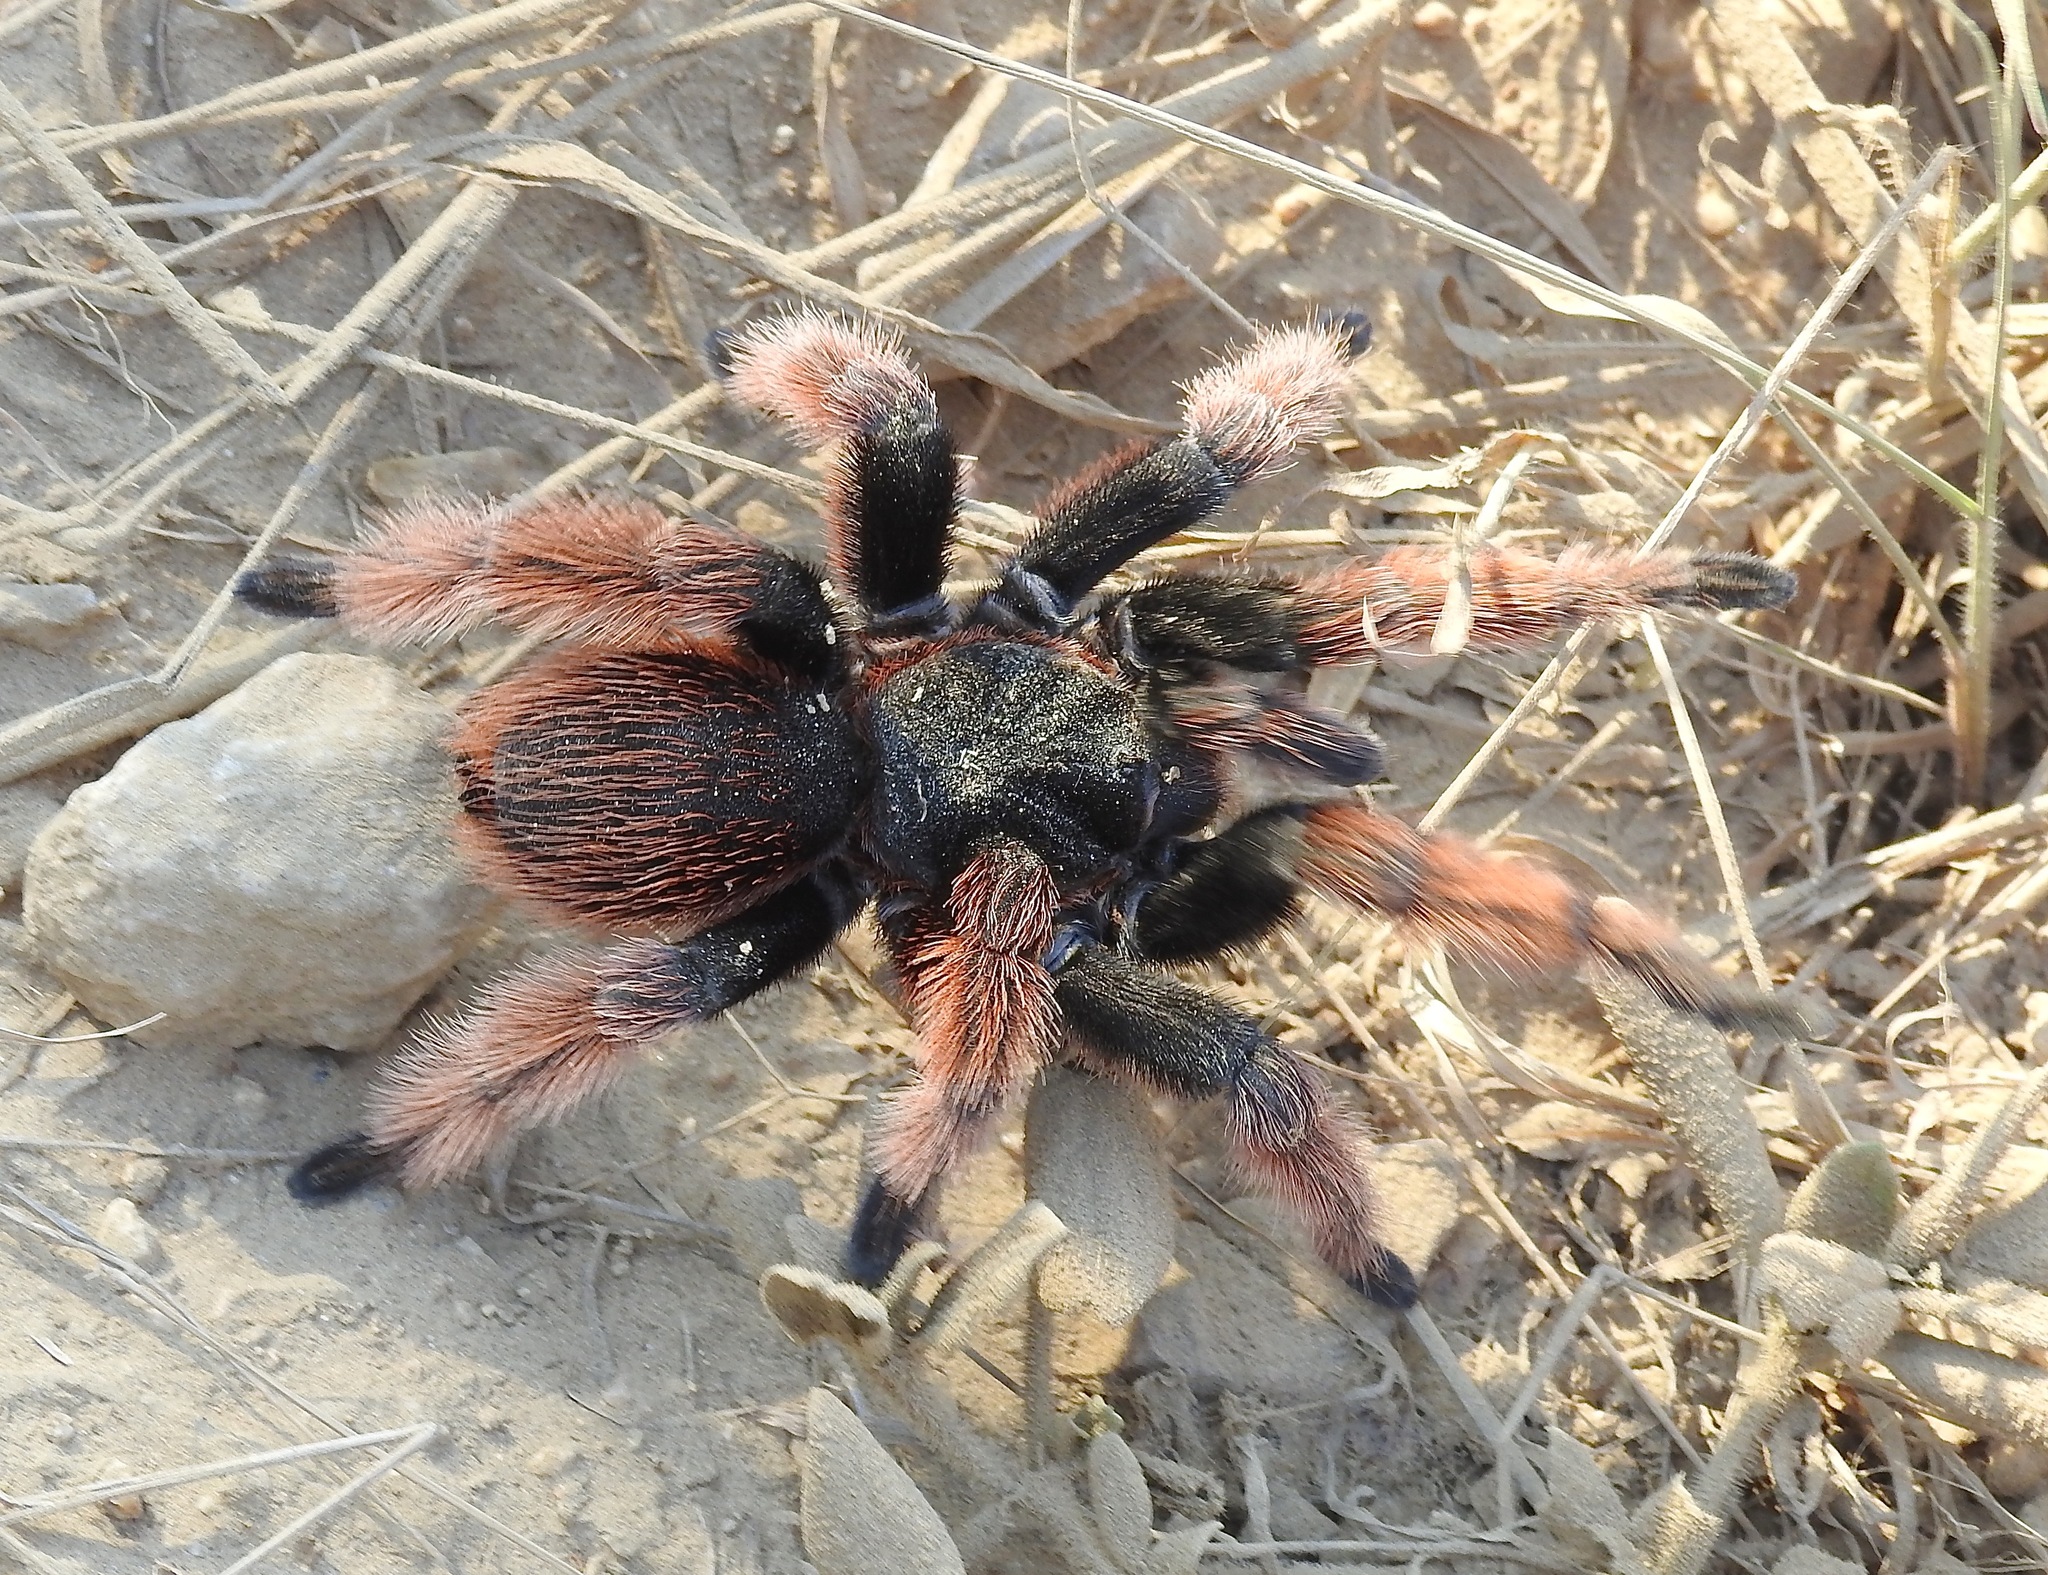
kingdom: Animalia
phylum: Arthropoda
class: Arachnida
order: Araneae
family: Theraphosidae
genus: Brachypelma
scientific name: Brachypelma klaasi
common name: Mexican pink beauty
